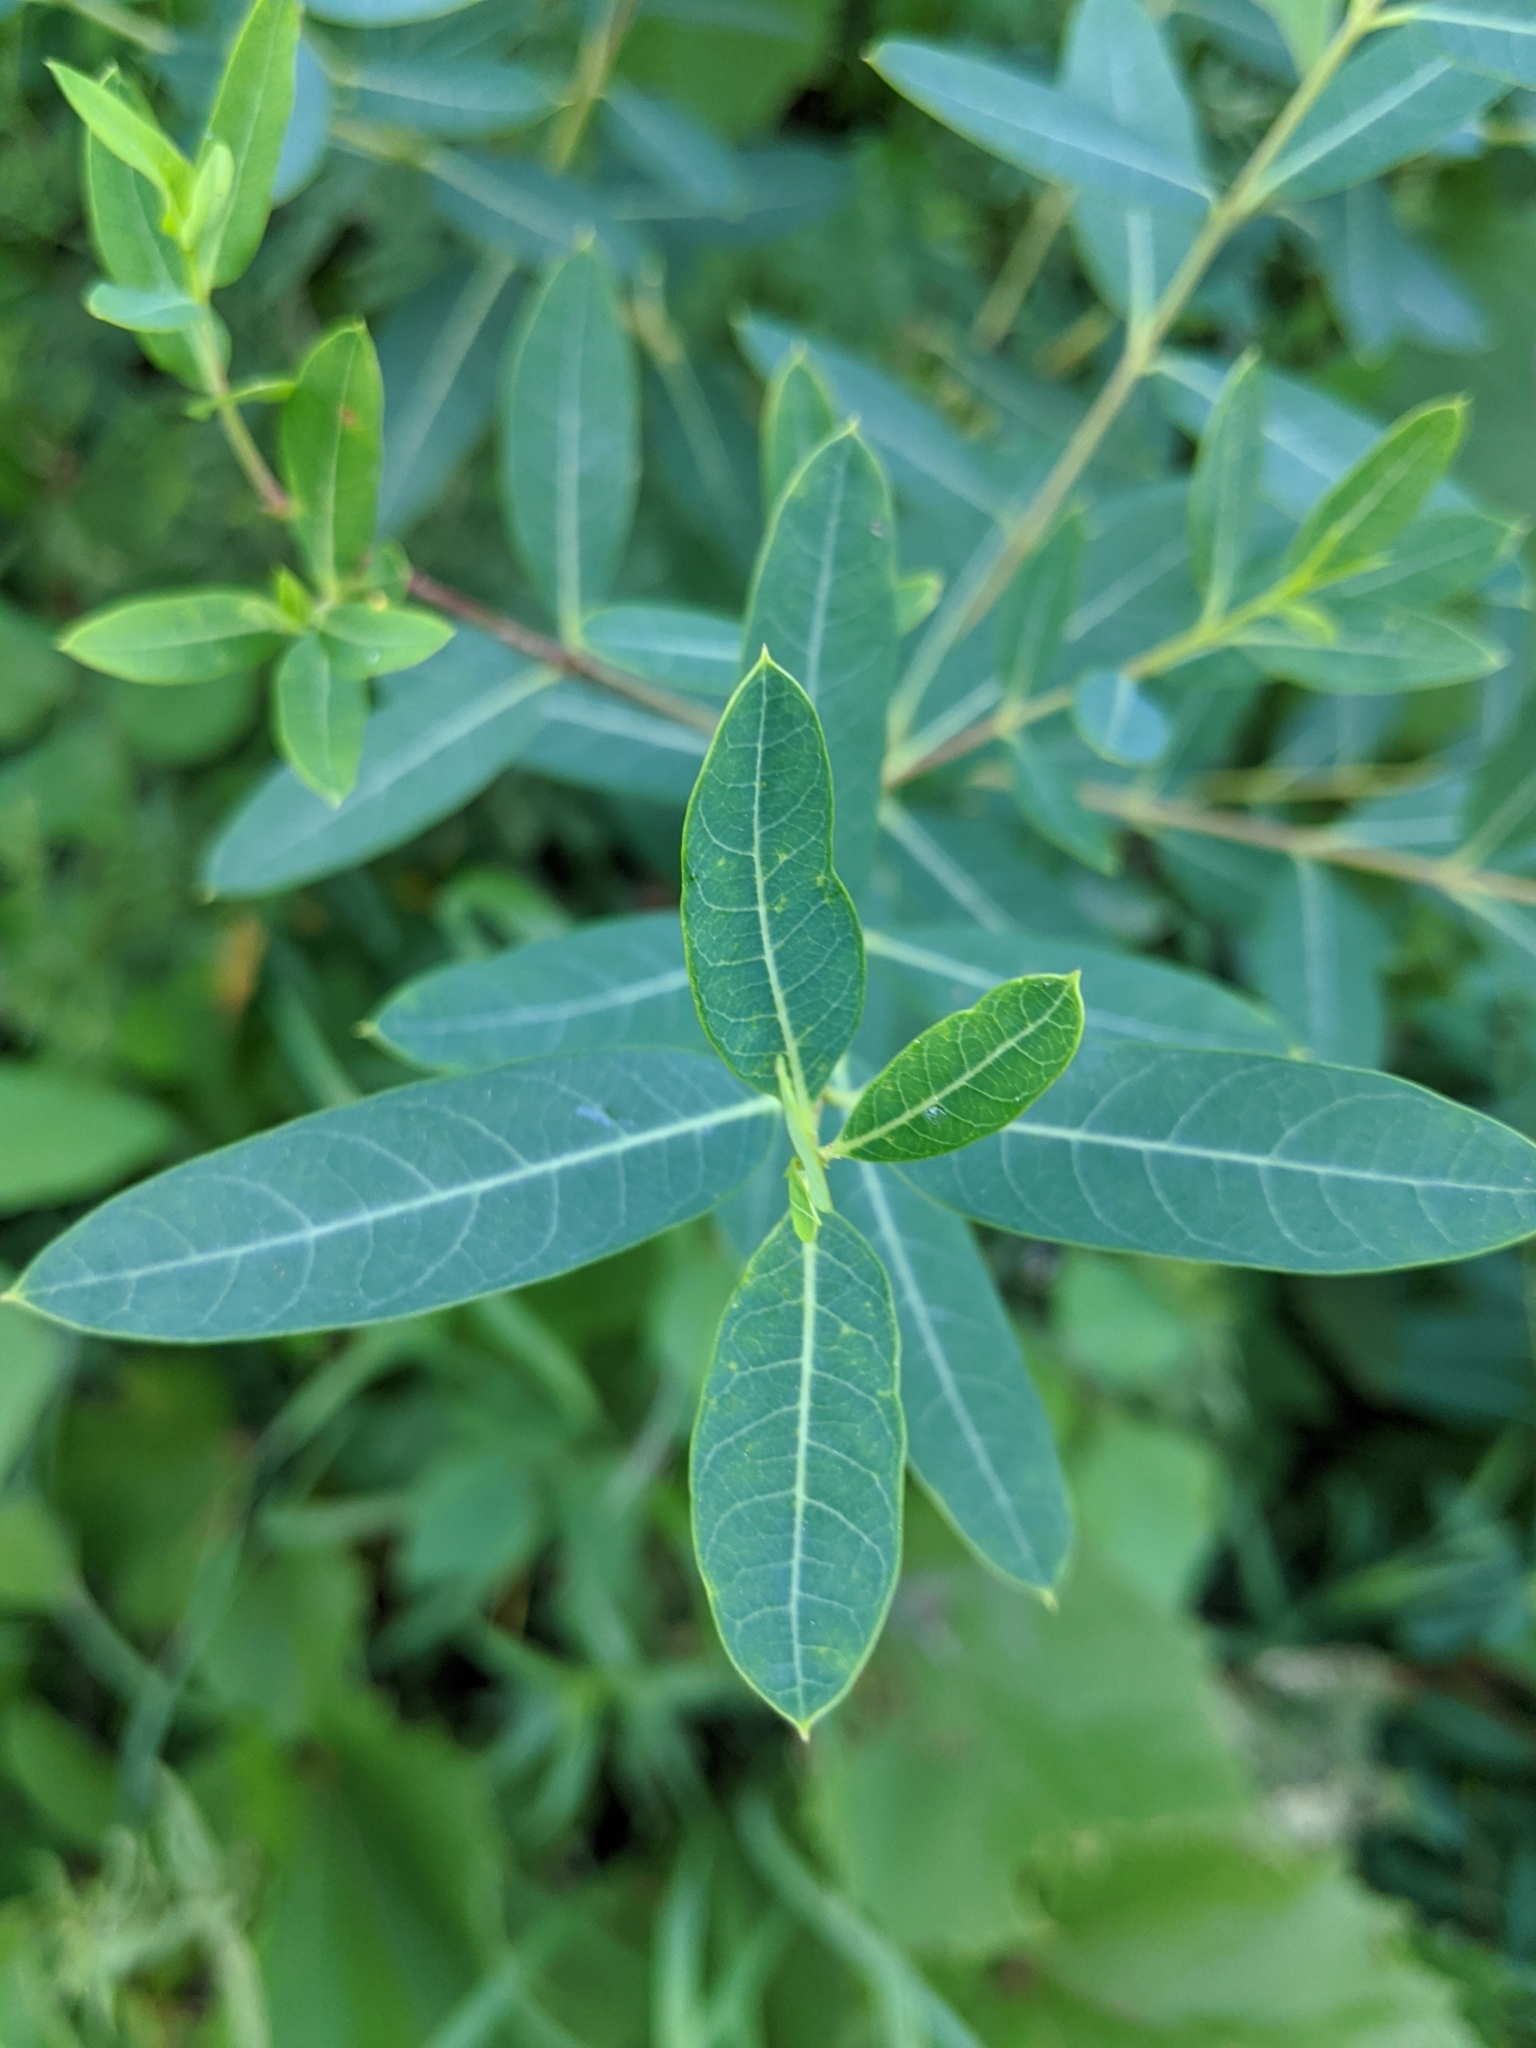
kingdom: Plantae
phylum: Tracheophyta
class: Magnoliopsida
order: Gentianales
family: Apocynaceae
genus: Apocynum
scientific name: Apocynum cannabinum
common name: Hemp dogbane
